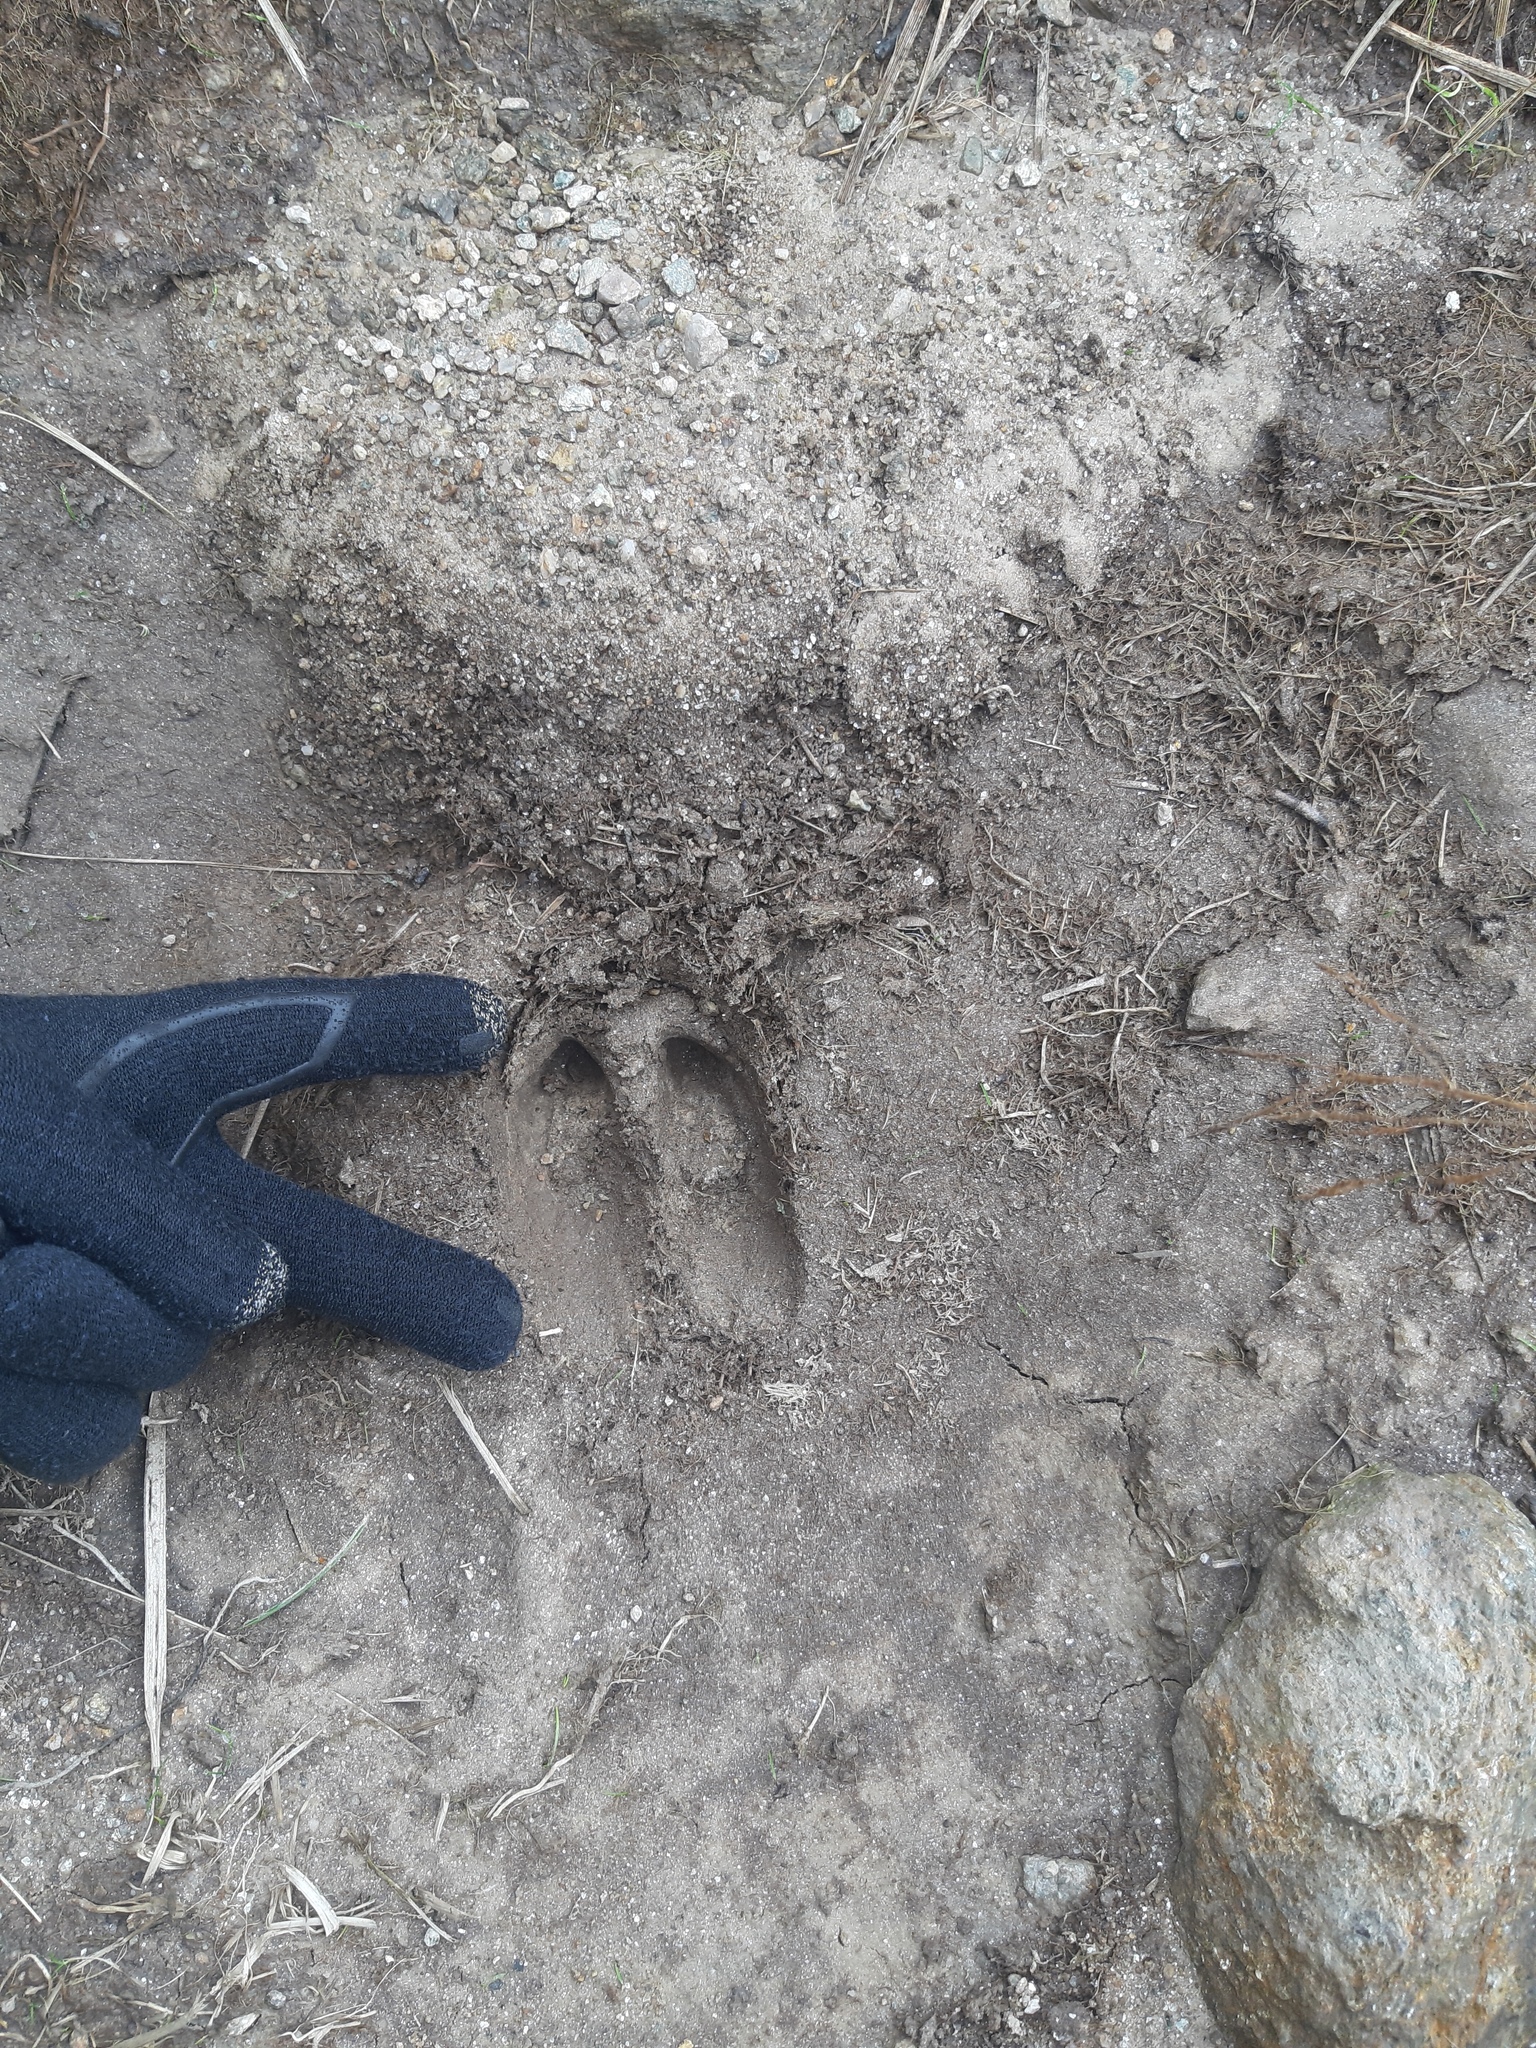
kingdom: Animalia
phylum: Chordata
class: Mammalia
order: Artiodactyla
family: Cervidae
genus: Cervus
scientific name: Cervus elaphus
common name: Red deer
